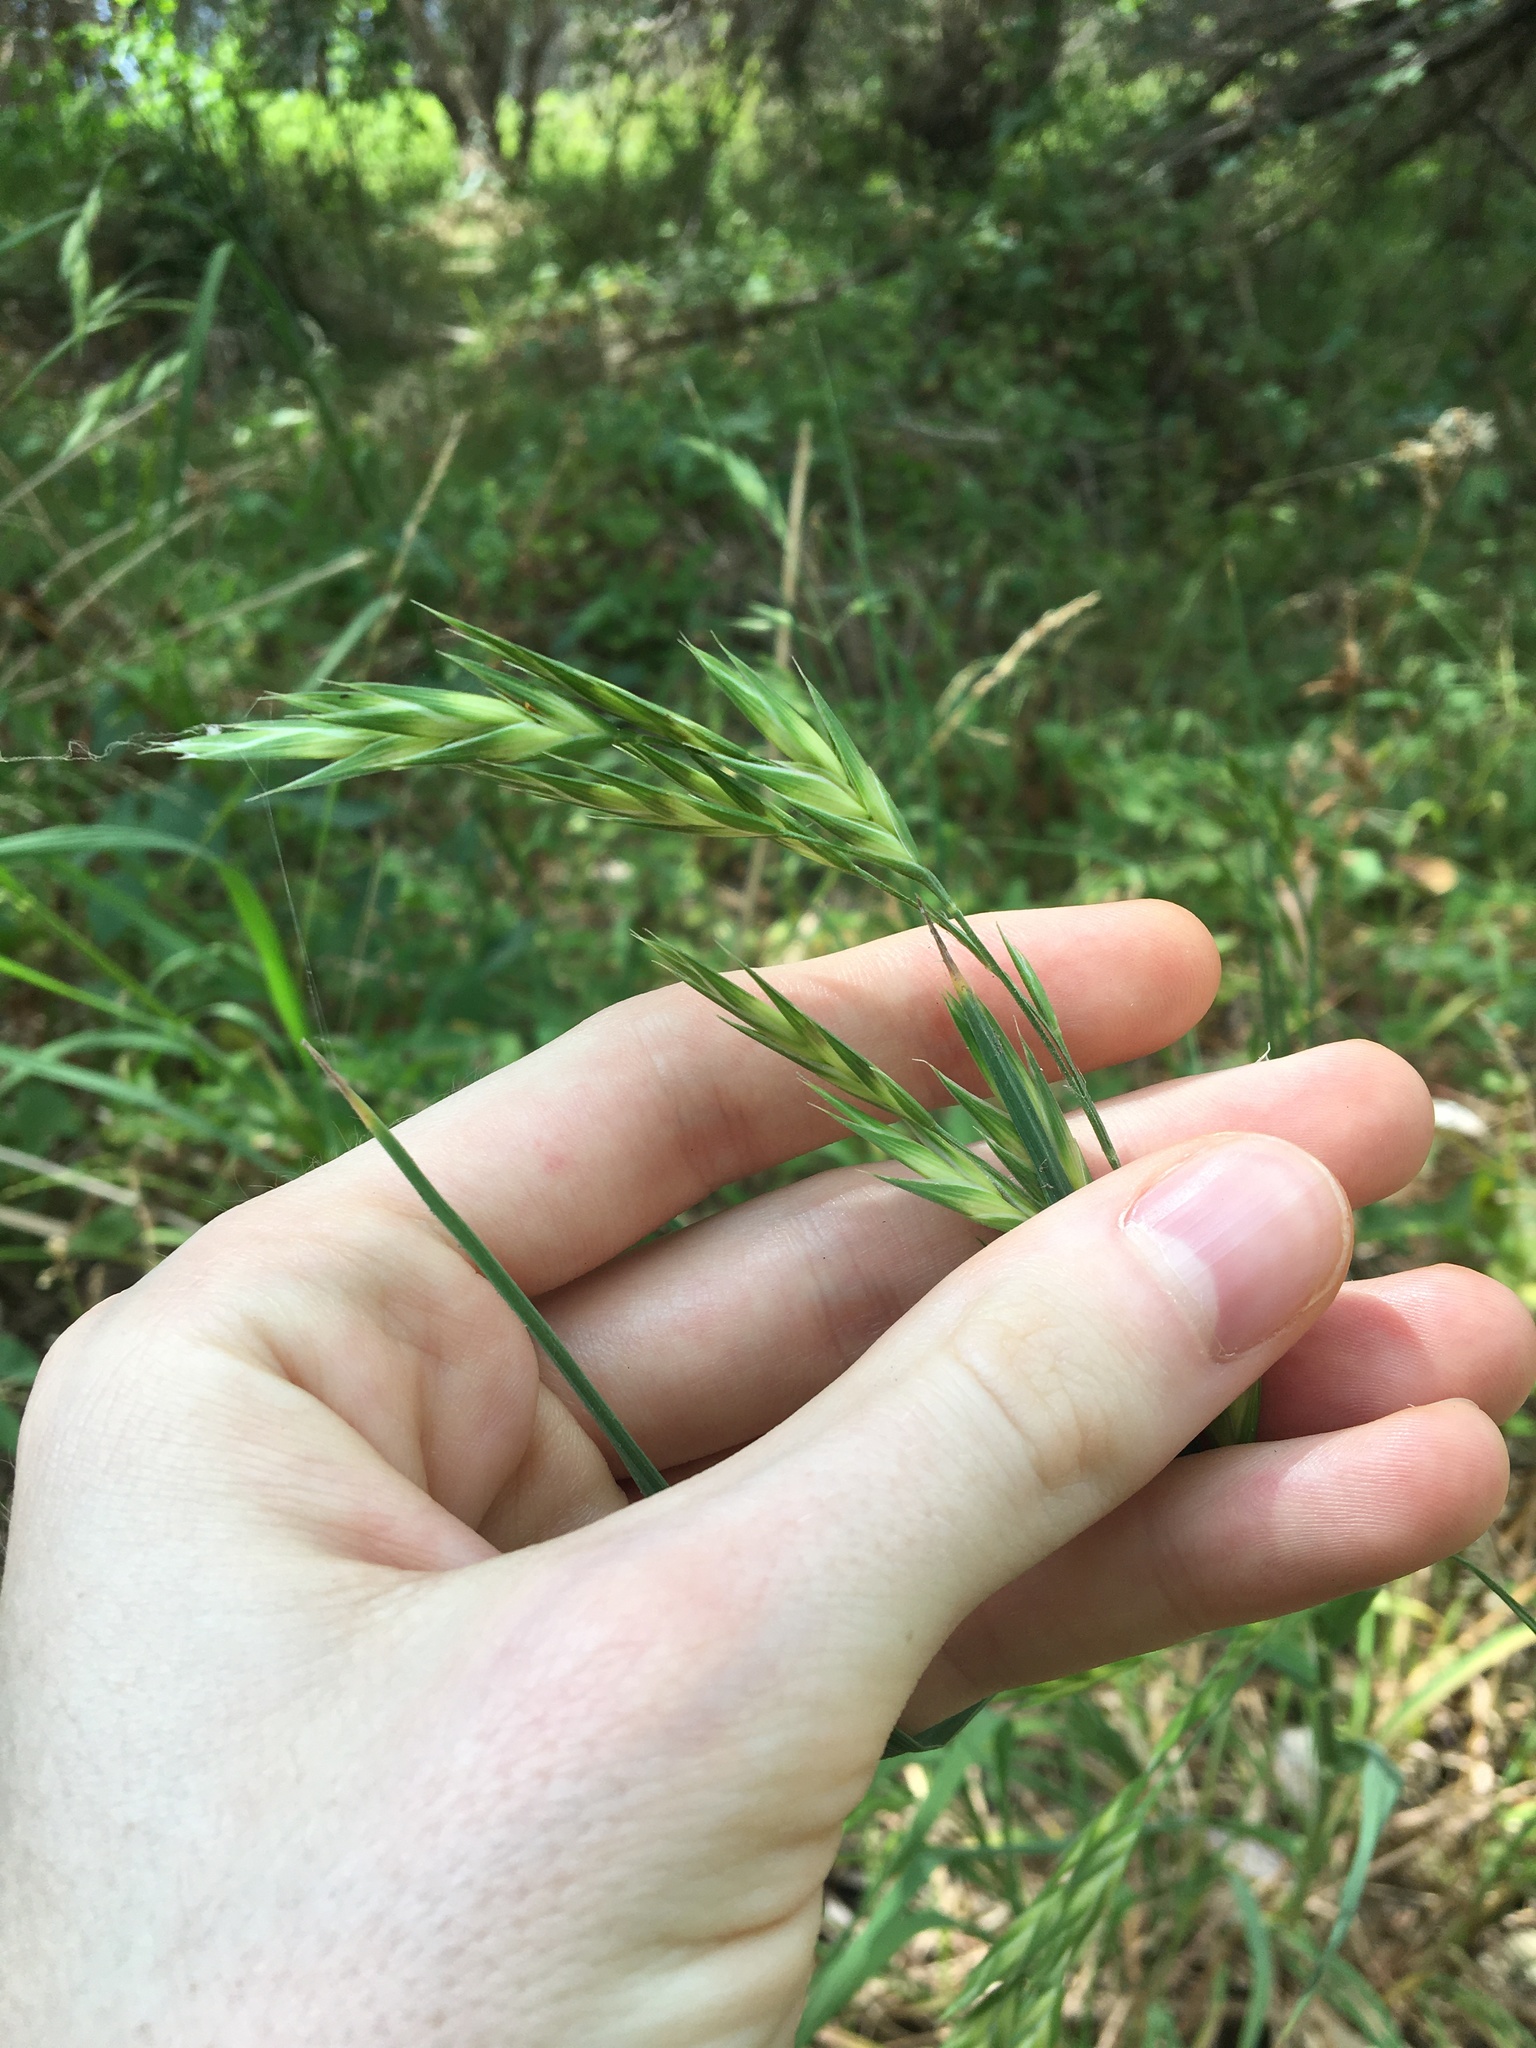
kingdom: Plantae
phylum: Tracheophyta
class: Liliopsida
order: Poales
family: Poaceae
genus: Bromus
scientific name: Bromus catharticus
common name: Rescuegrass
